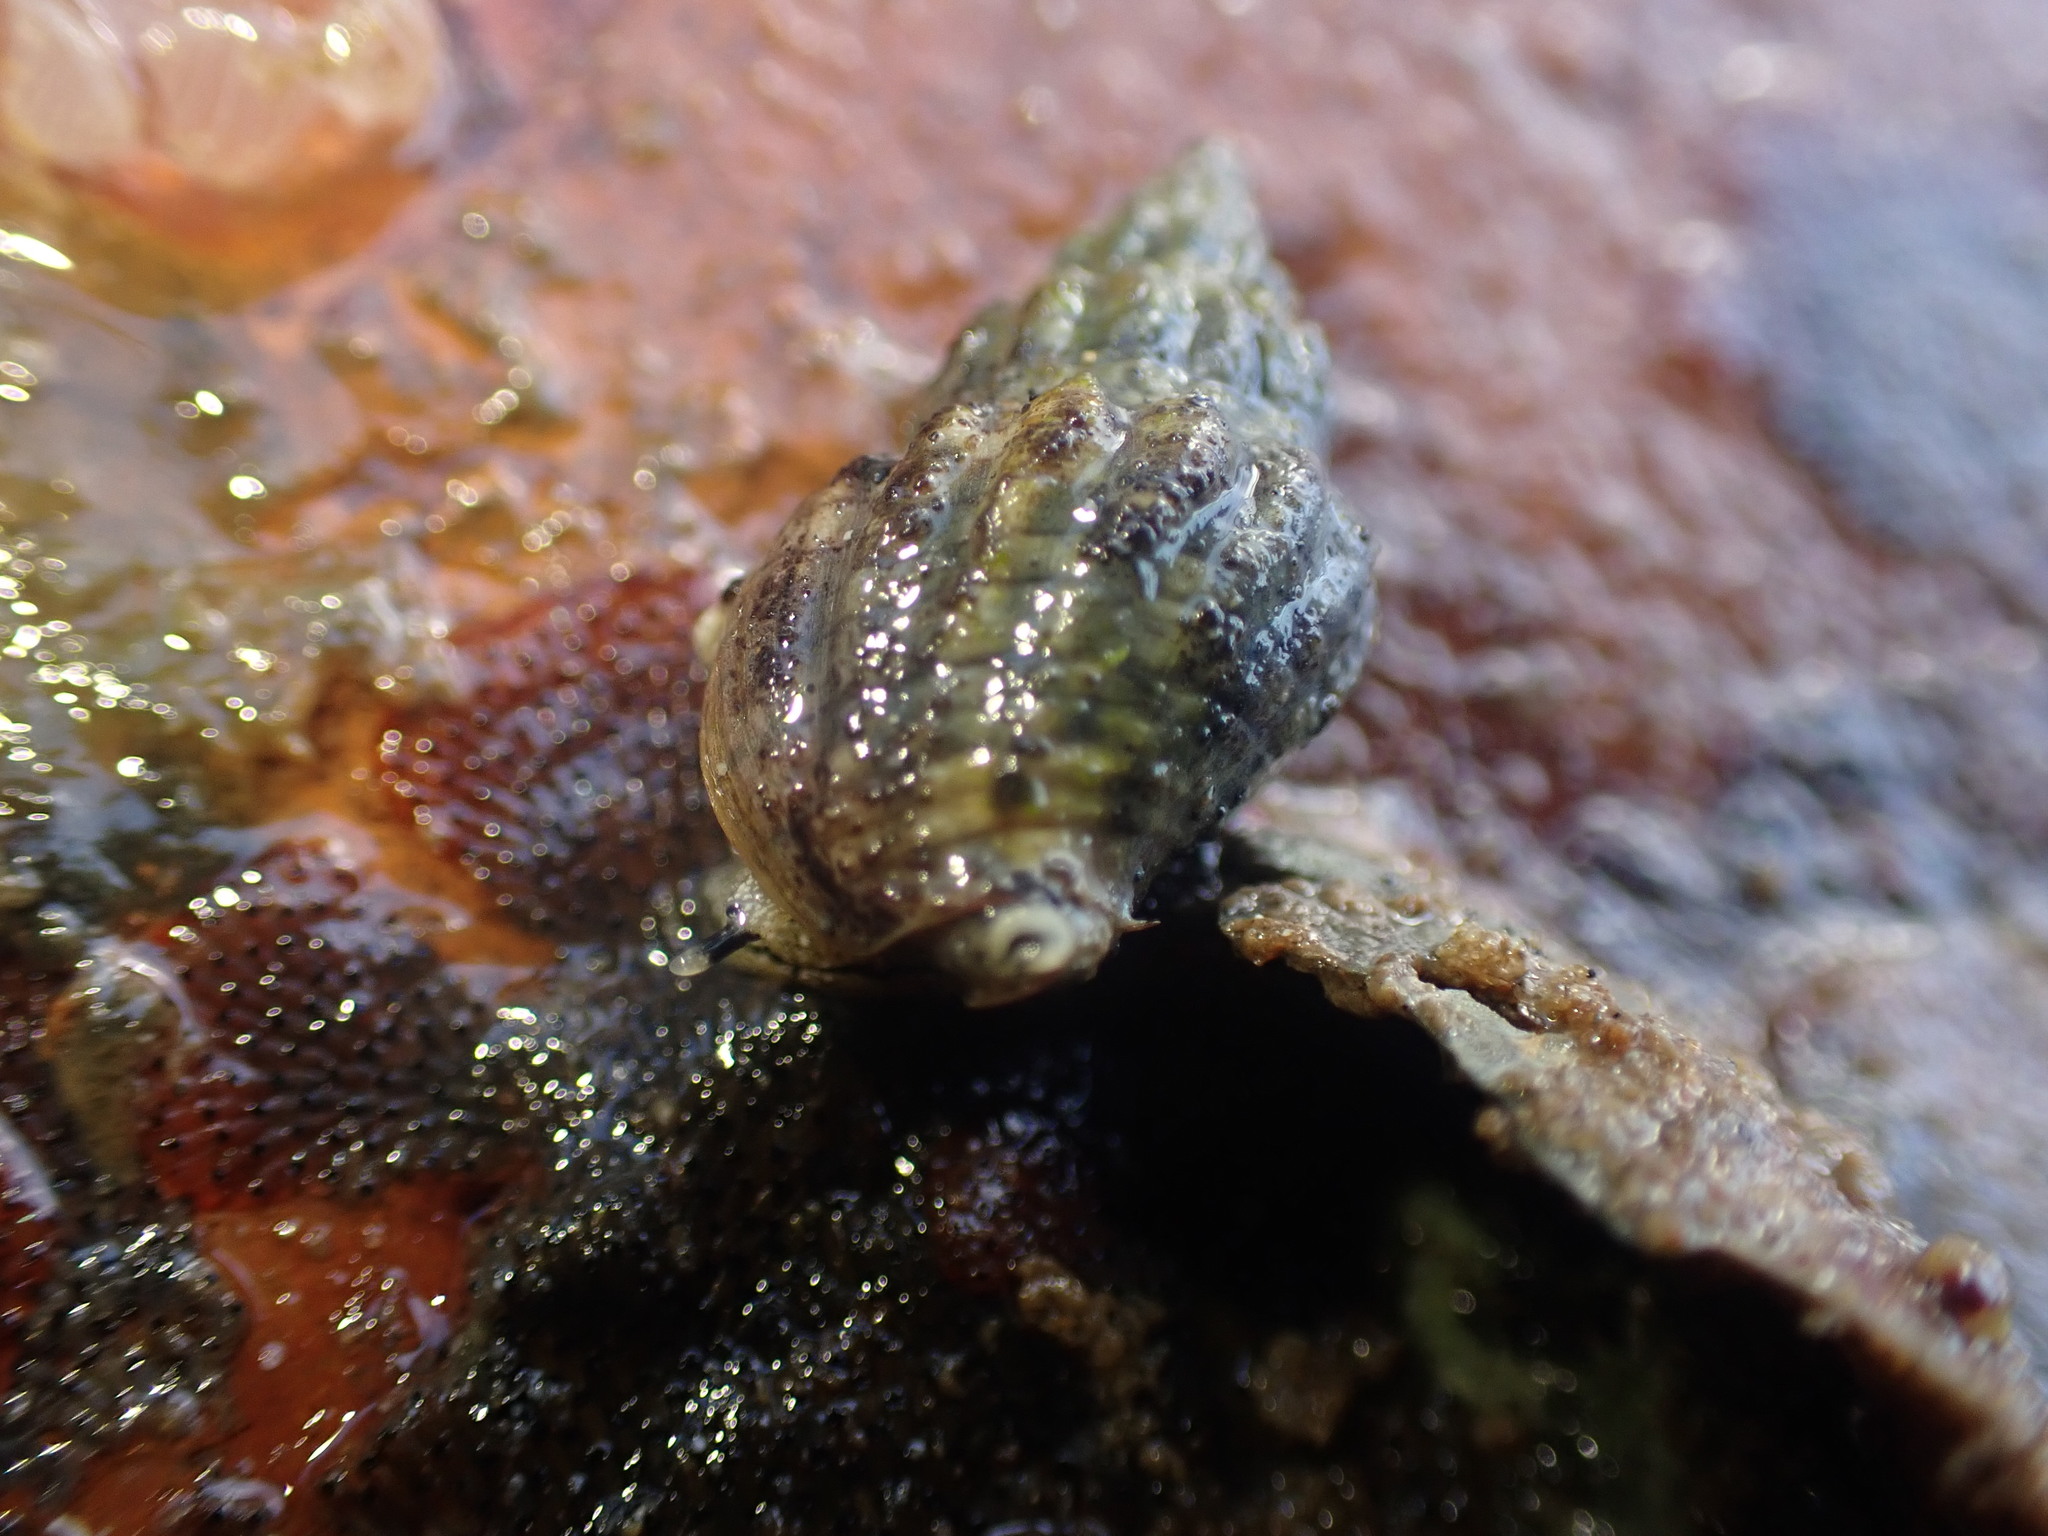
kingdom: Animalia
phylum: Mollusca
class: Gastropoda
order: Neogastropoda
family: Cominellidae
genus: Cominella
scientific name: Cominella quoyana
